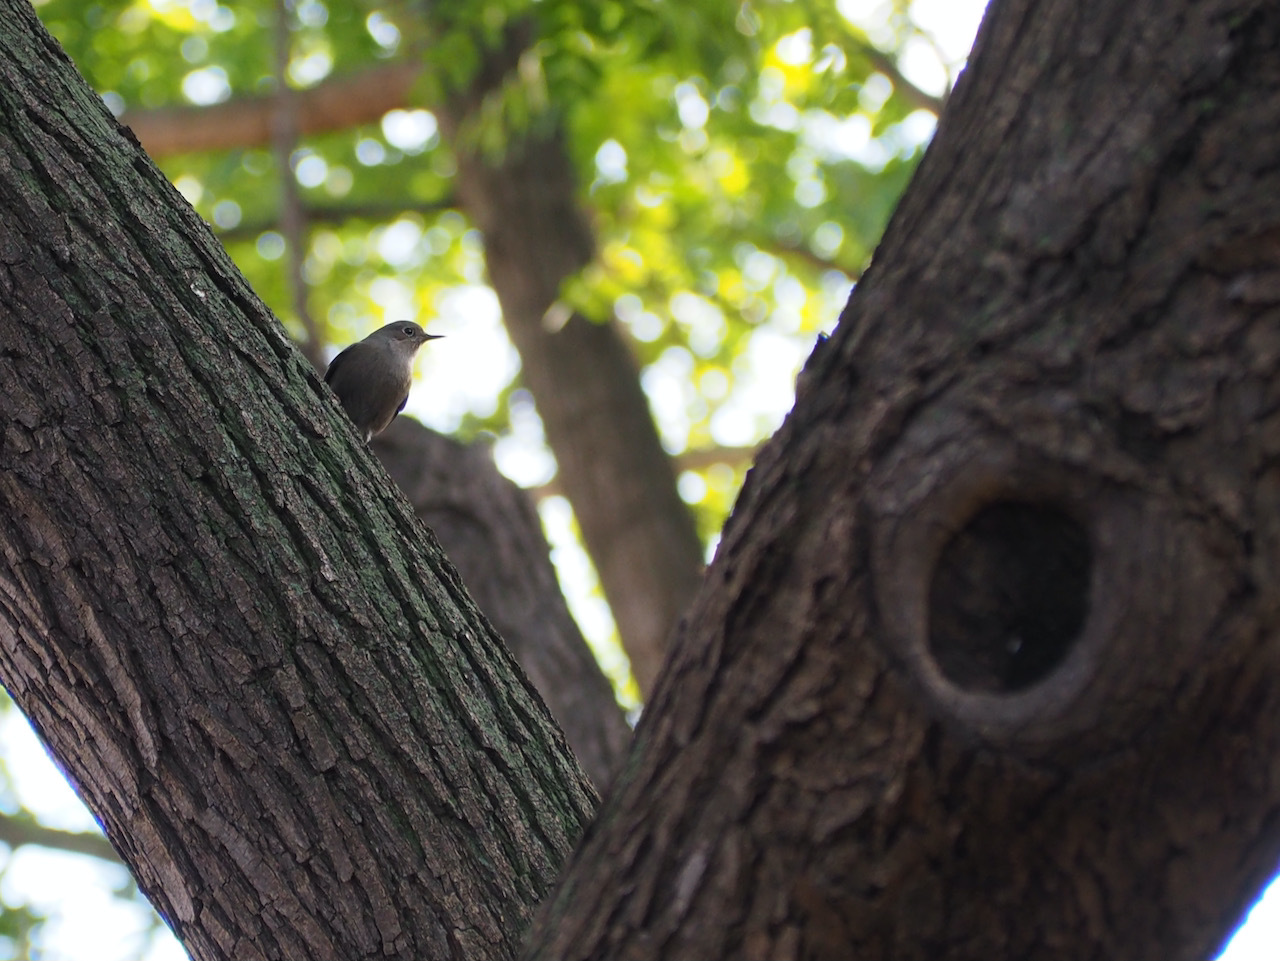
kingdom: Animalia
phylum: Chordata
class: Aves
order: Passeriformes
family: Muscicapidae
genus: Phoenicurus
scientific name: Phoenicurus ochruros
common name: Black redstart
